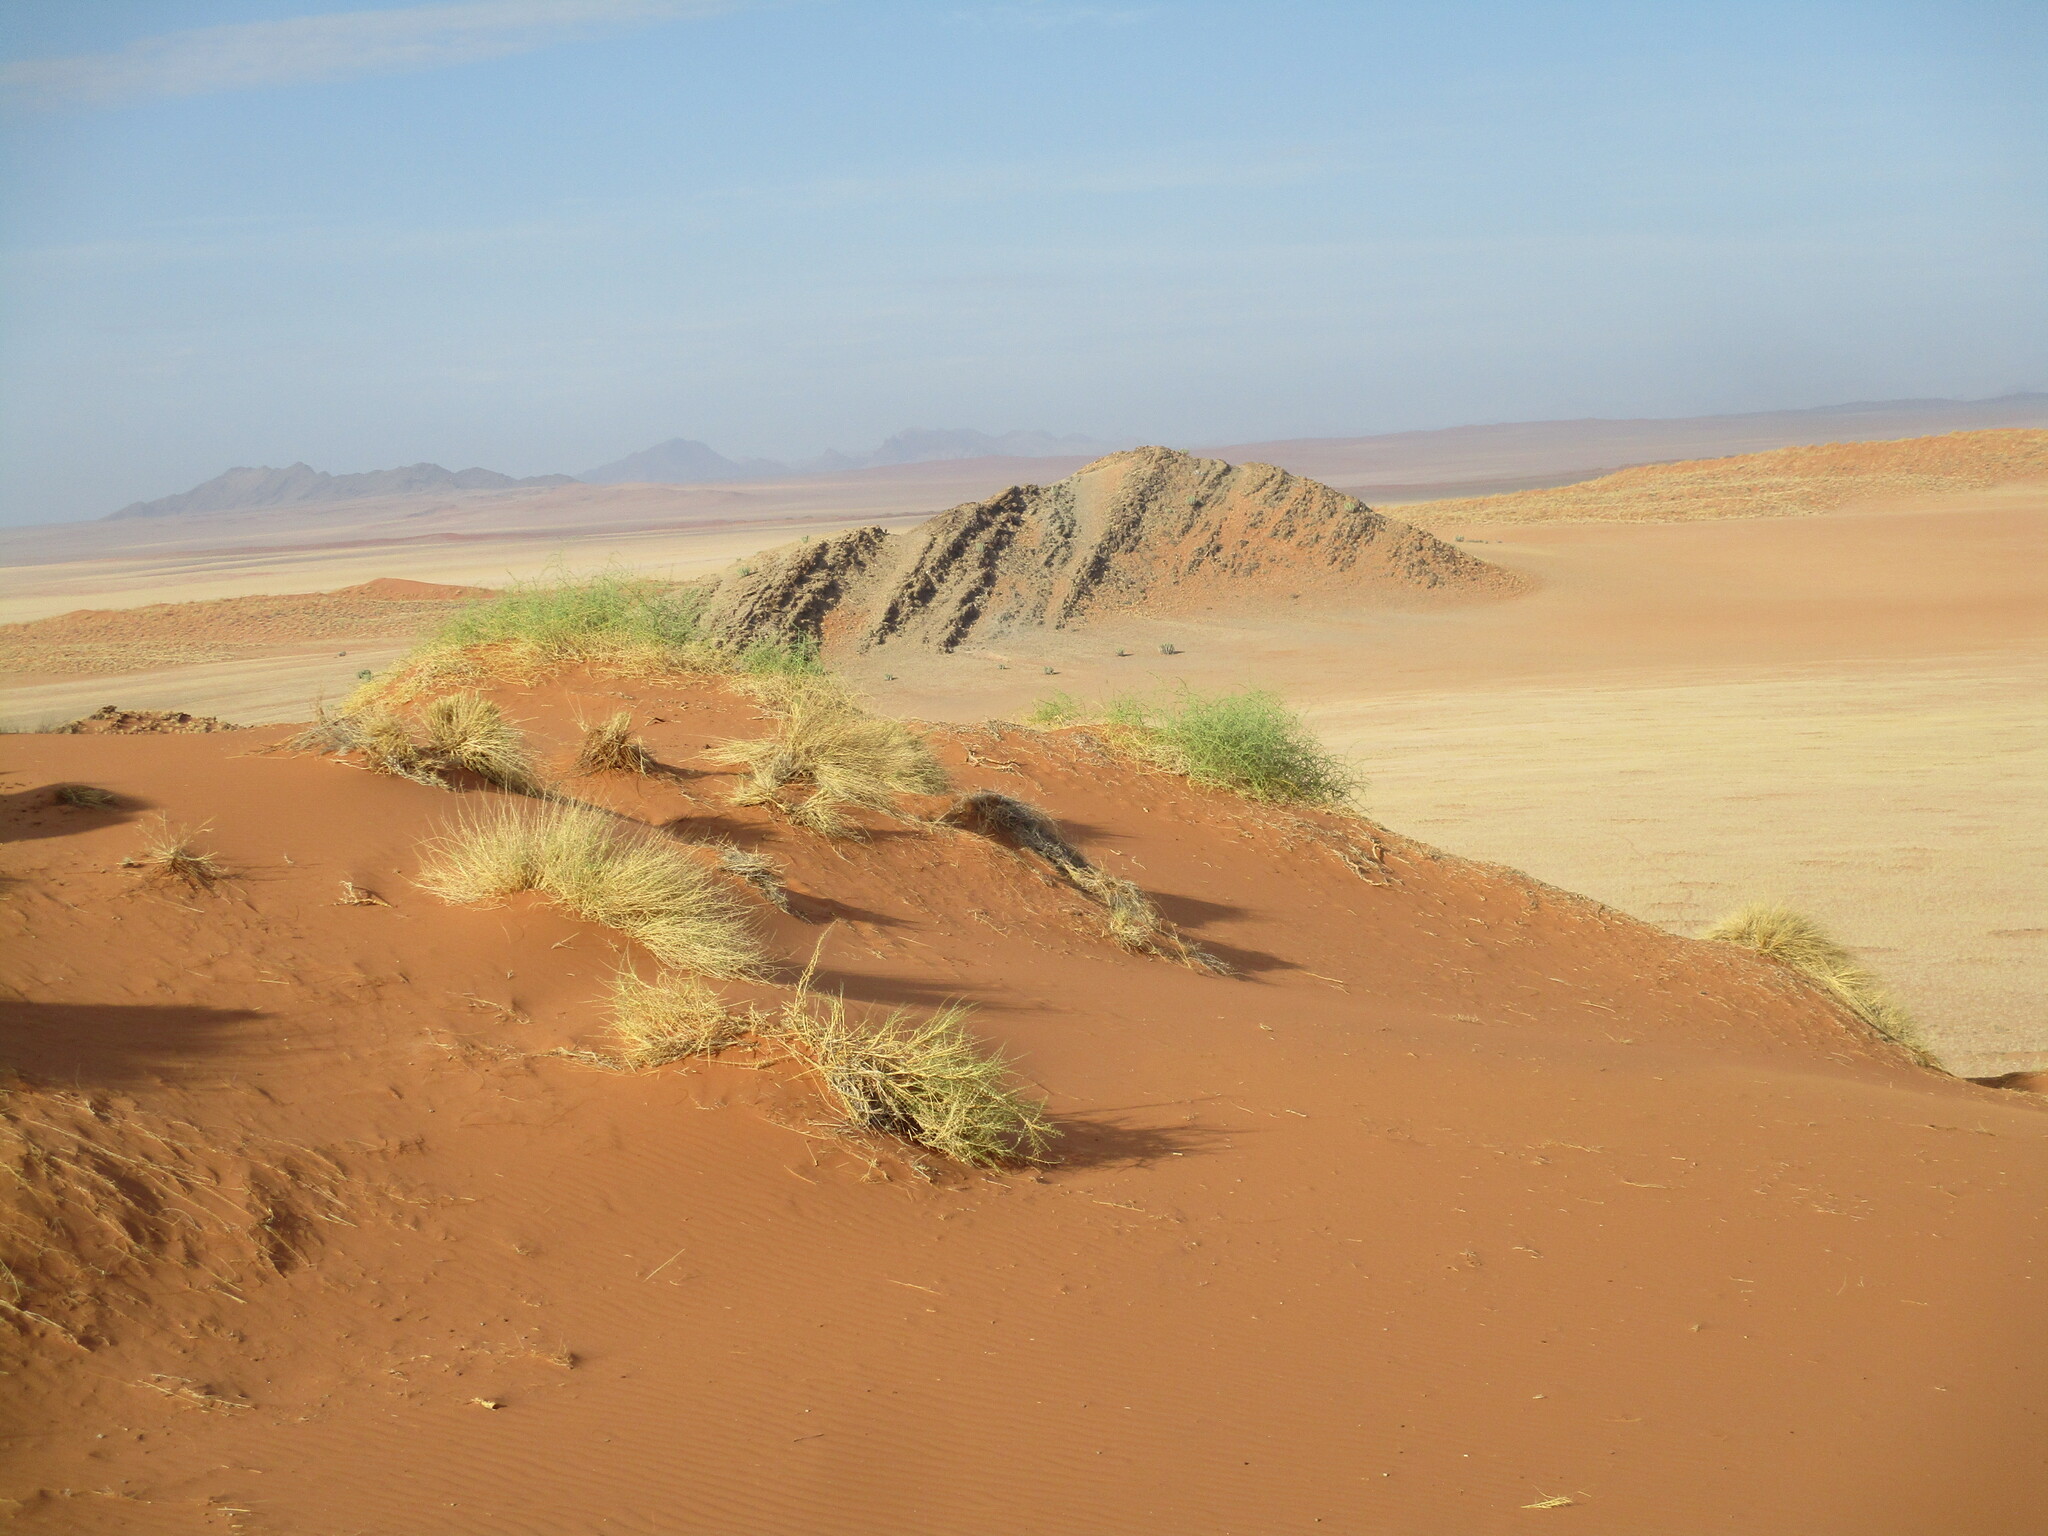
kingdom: Plantae
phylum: Tracheophyta
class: Magnoliopsida
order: Cucurbitales
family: Cucurbitaceae
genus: Acanthosicyos
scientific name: Acanthosicyos horridus
